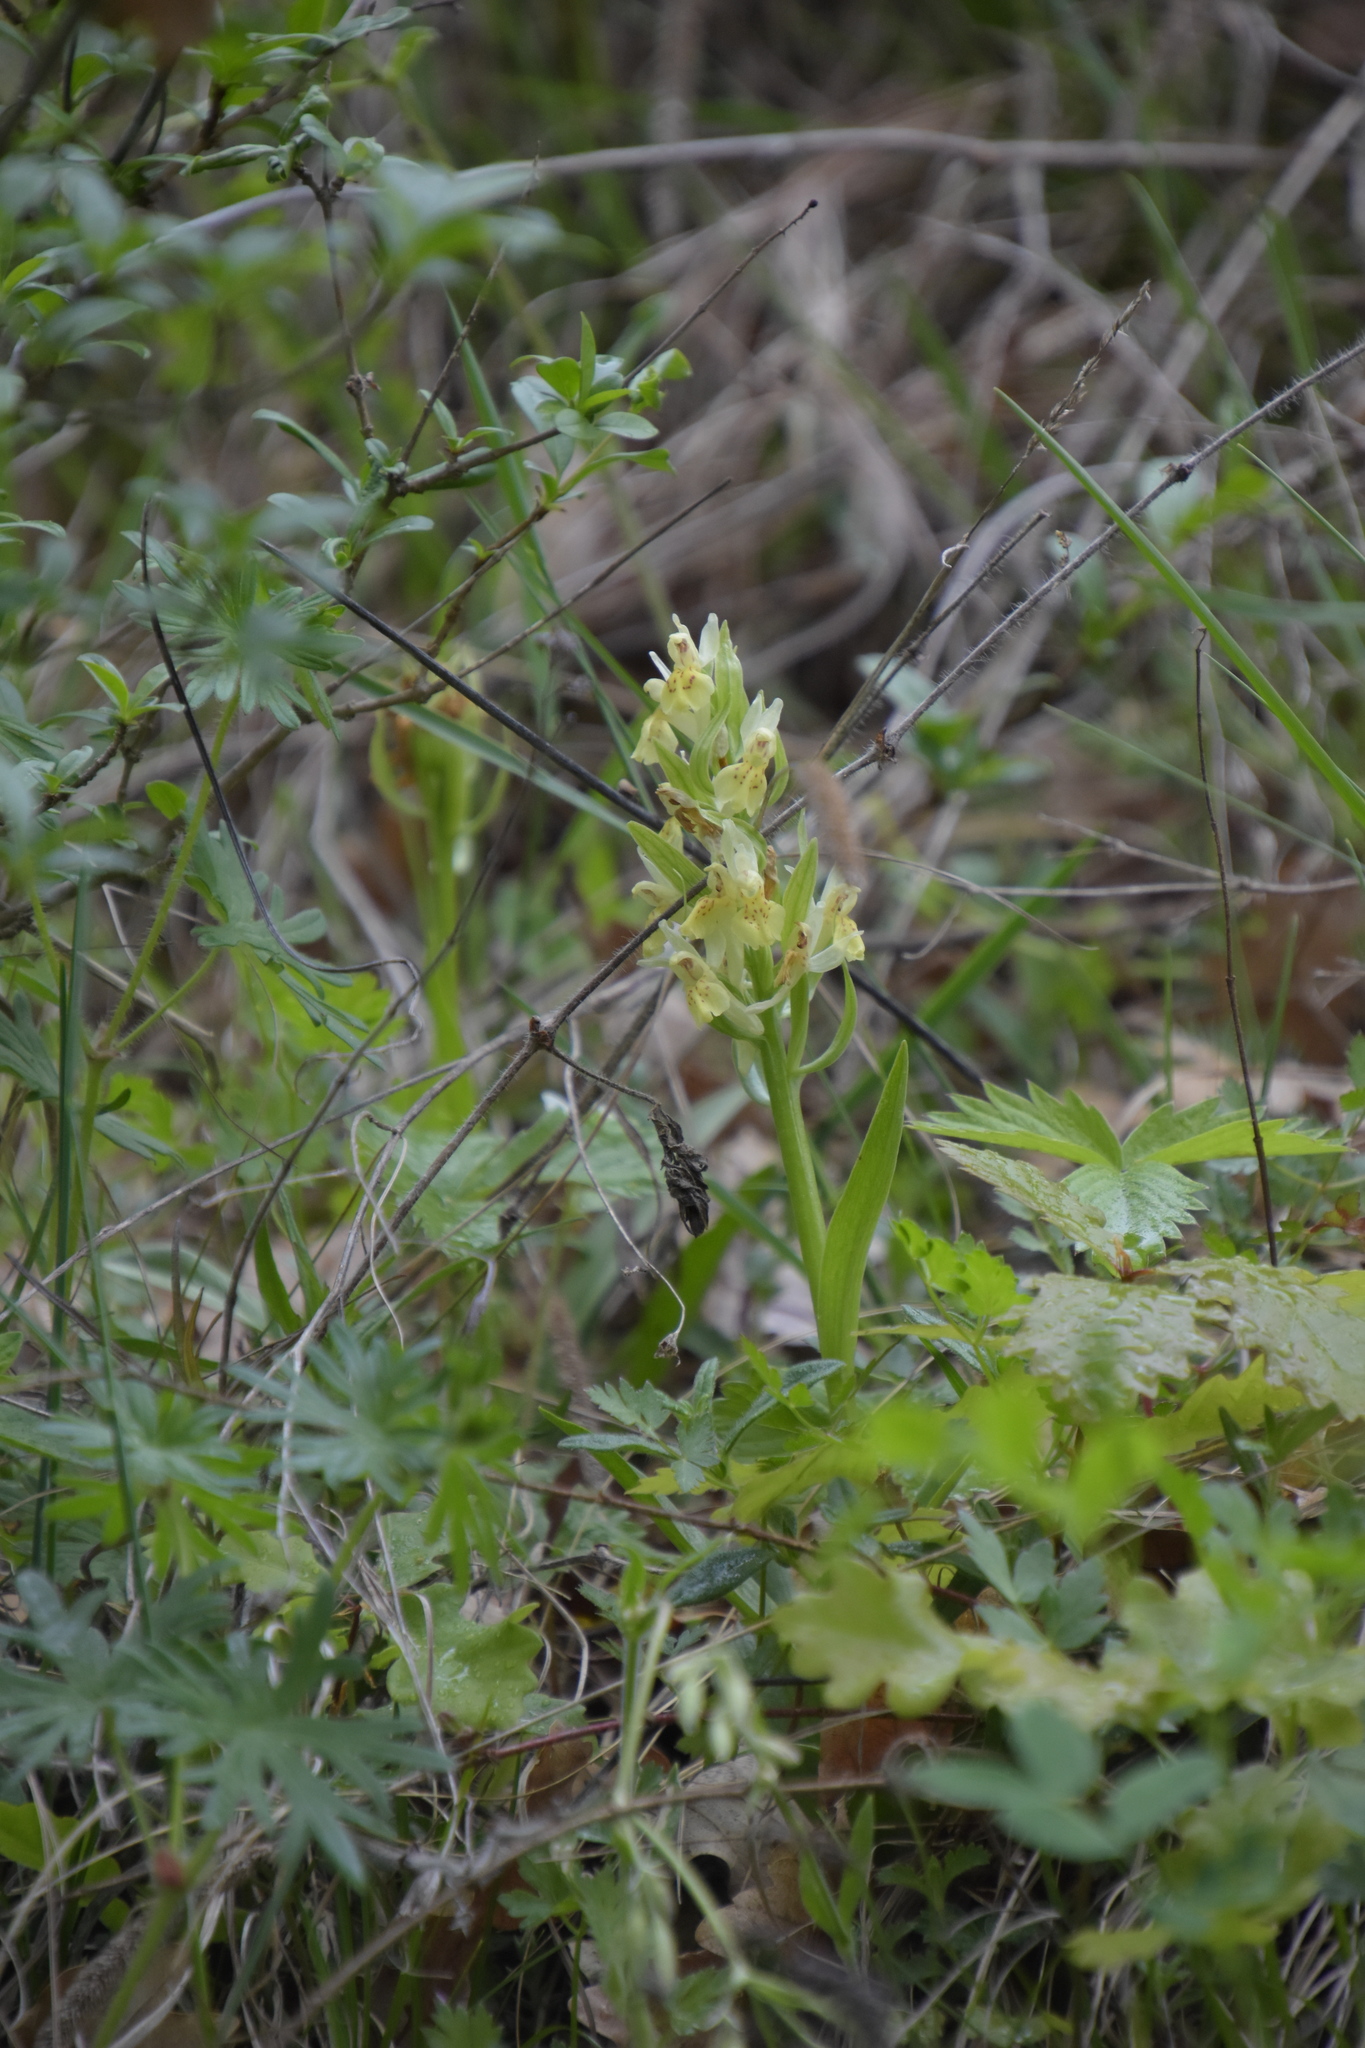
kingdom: Plantae
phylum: Tracheophyta
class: Liliopsida
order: Asparagales
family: Orchidaceae
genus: Dactylorhiza
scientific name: Dactylorhiza sambucina
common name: Elder-flowered orchid
